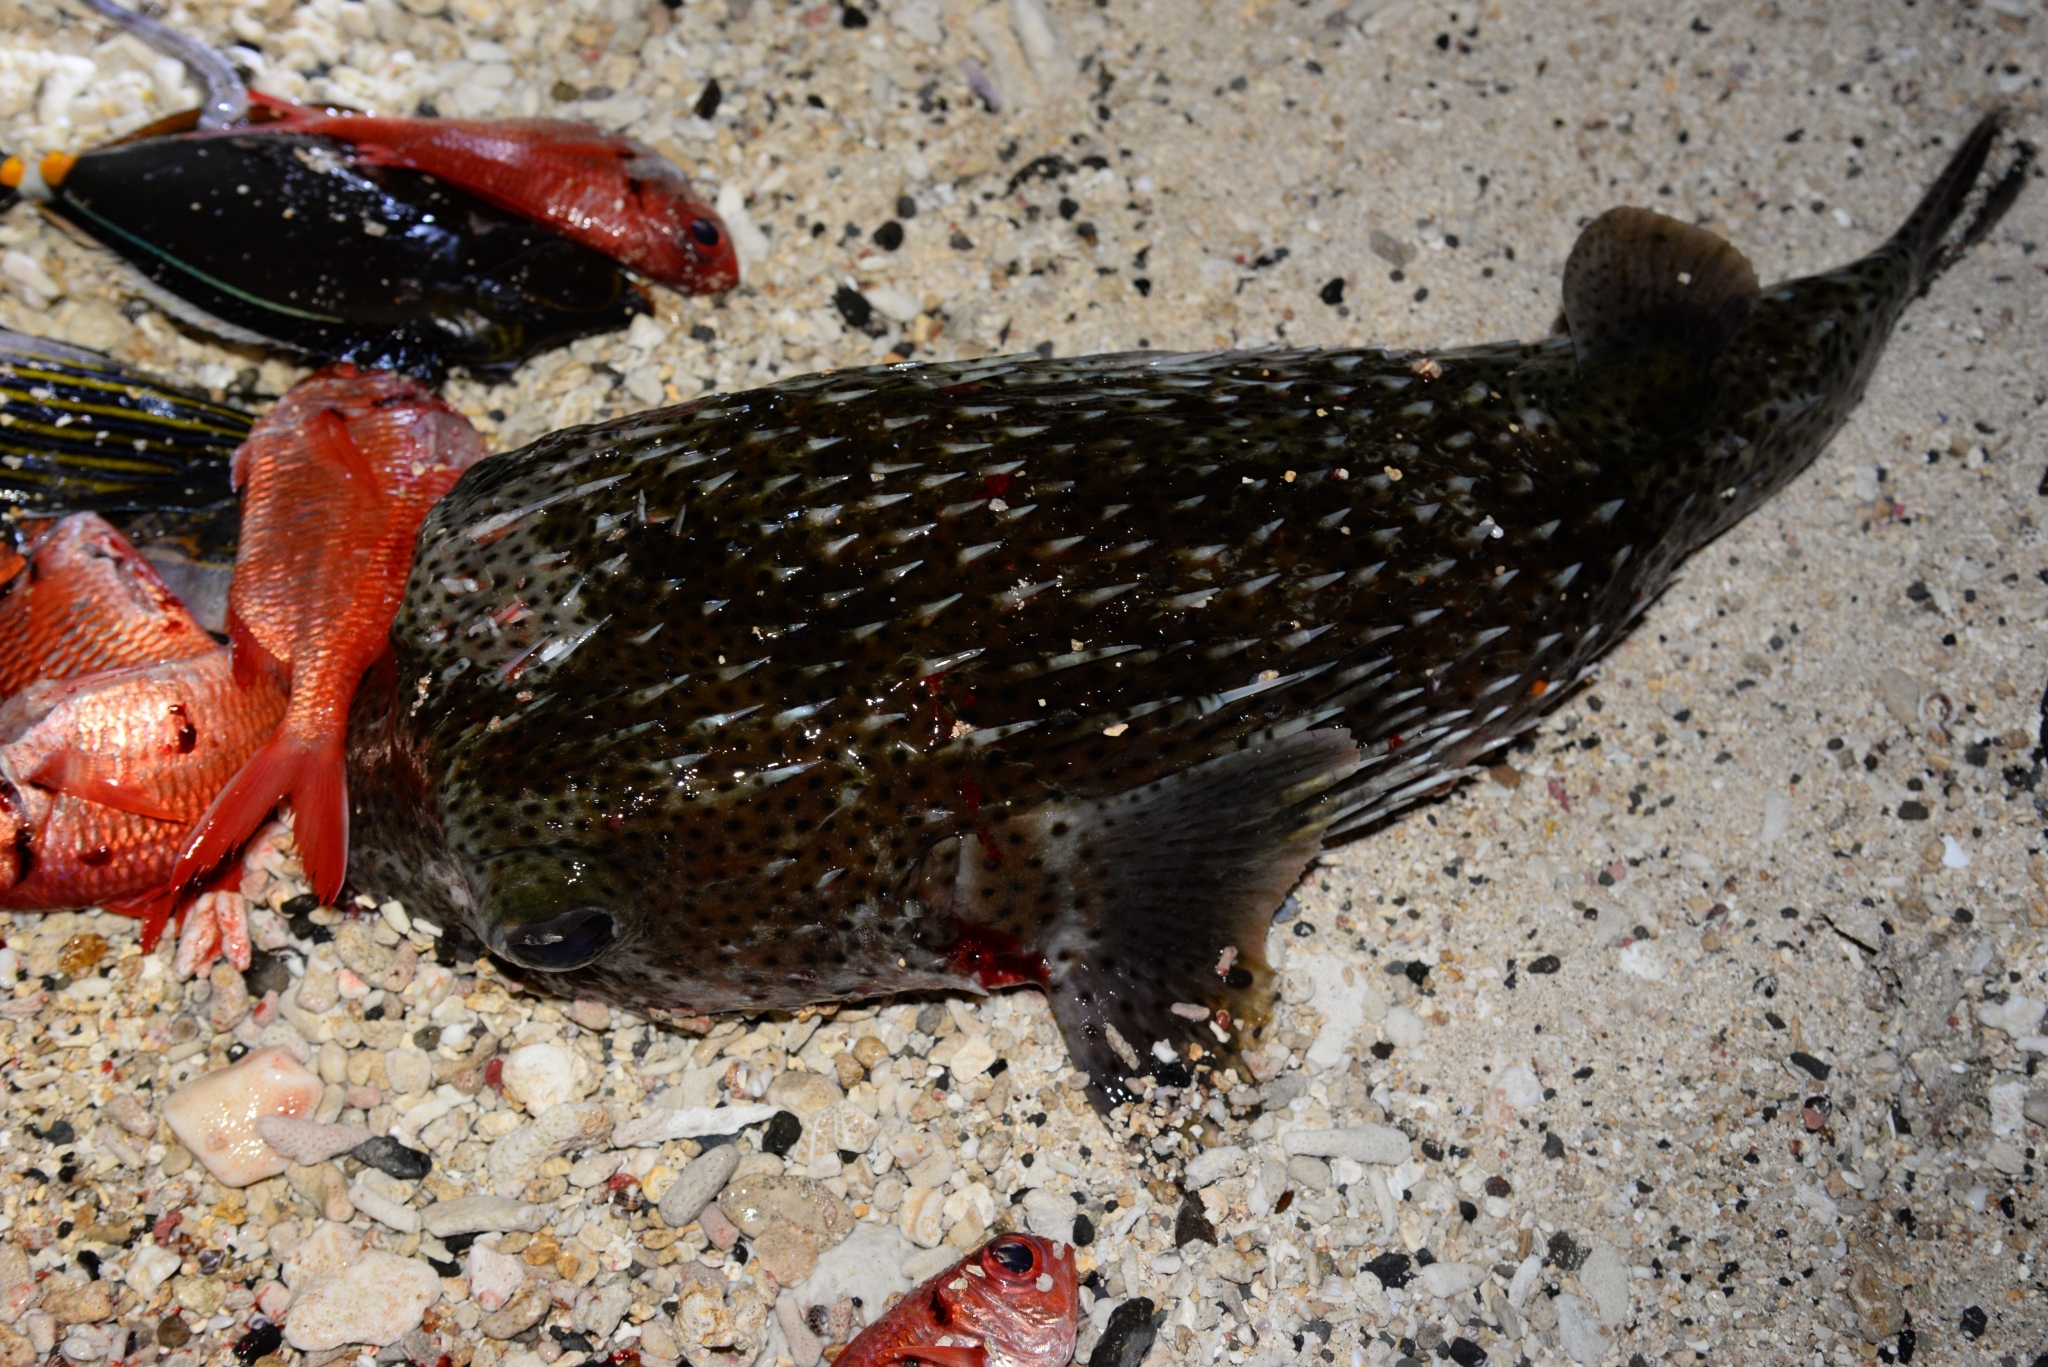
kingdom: Animalia
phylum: Chordata
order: Tetraodontiformes
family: Diodontidae
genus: Diodon
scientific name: Diodon hystrix
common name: Giant porcupinefish
